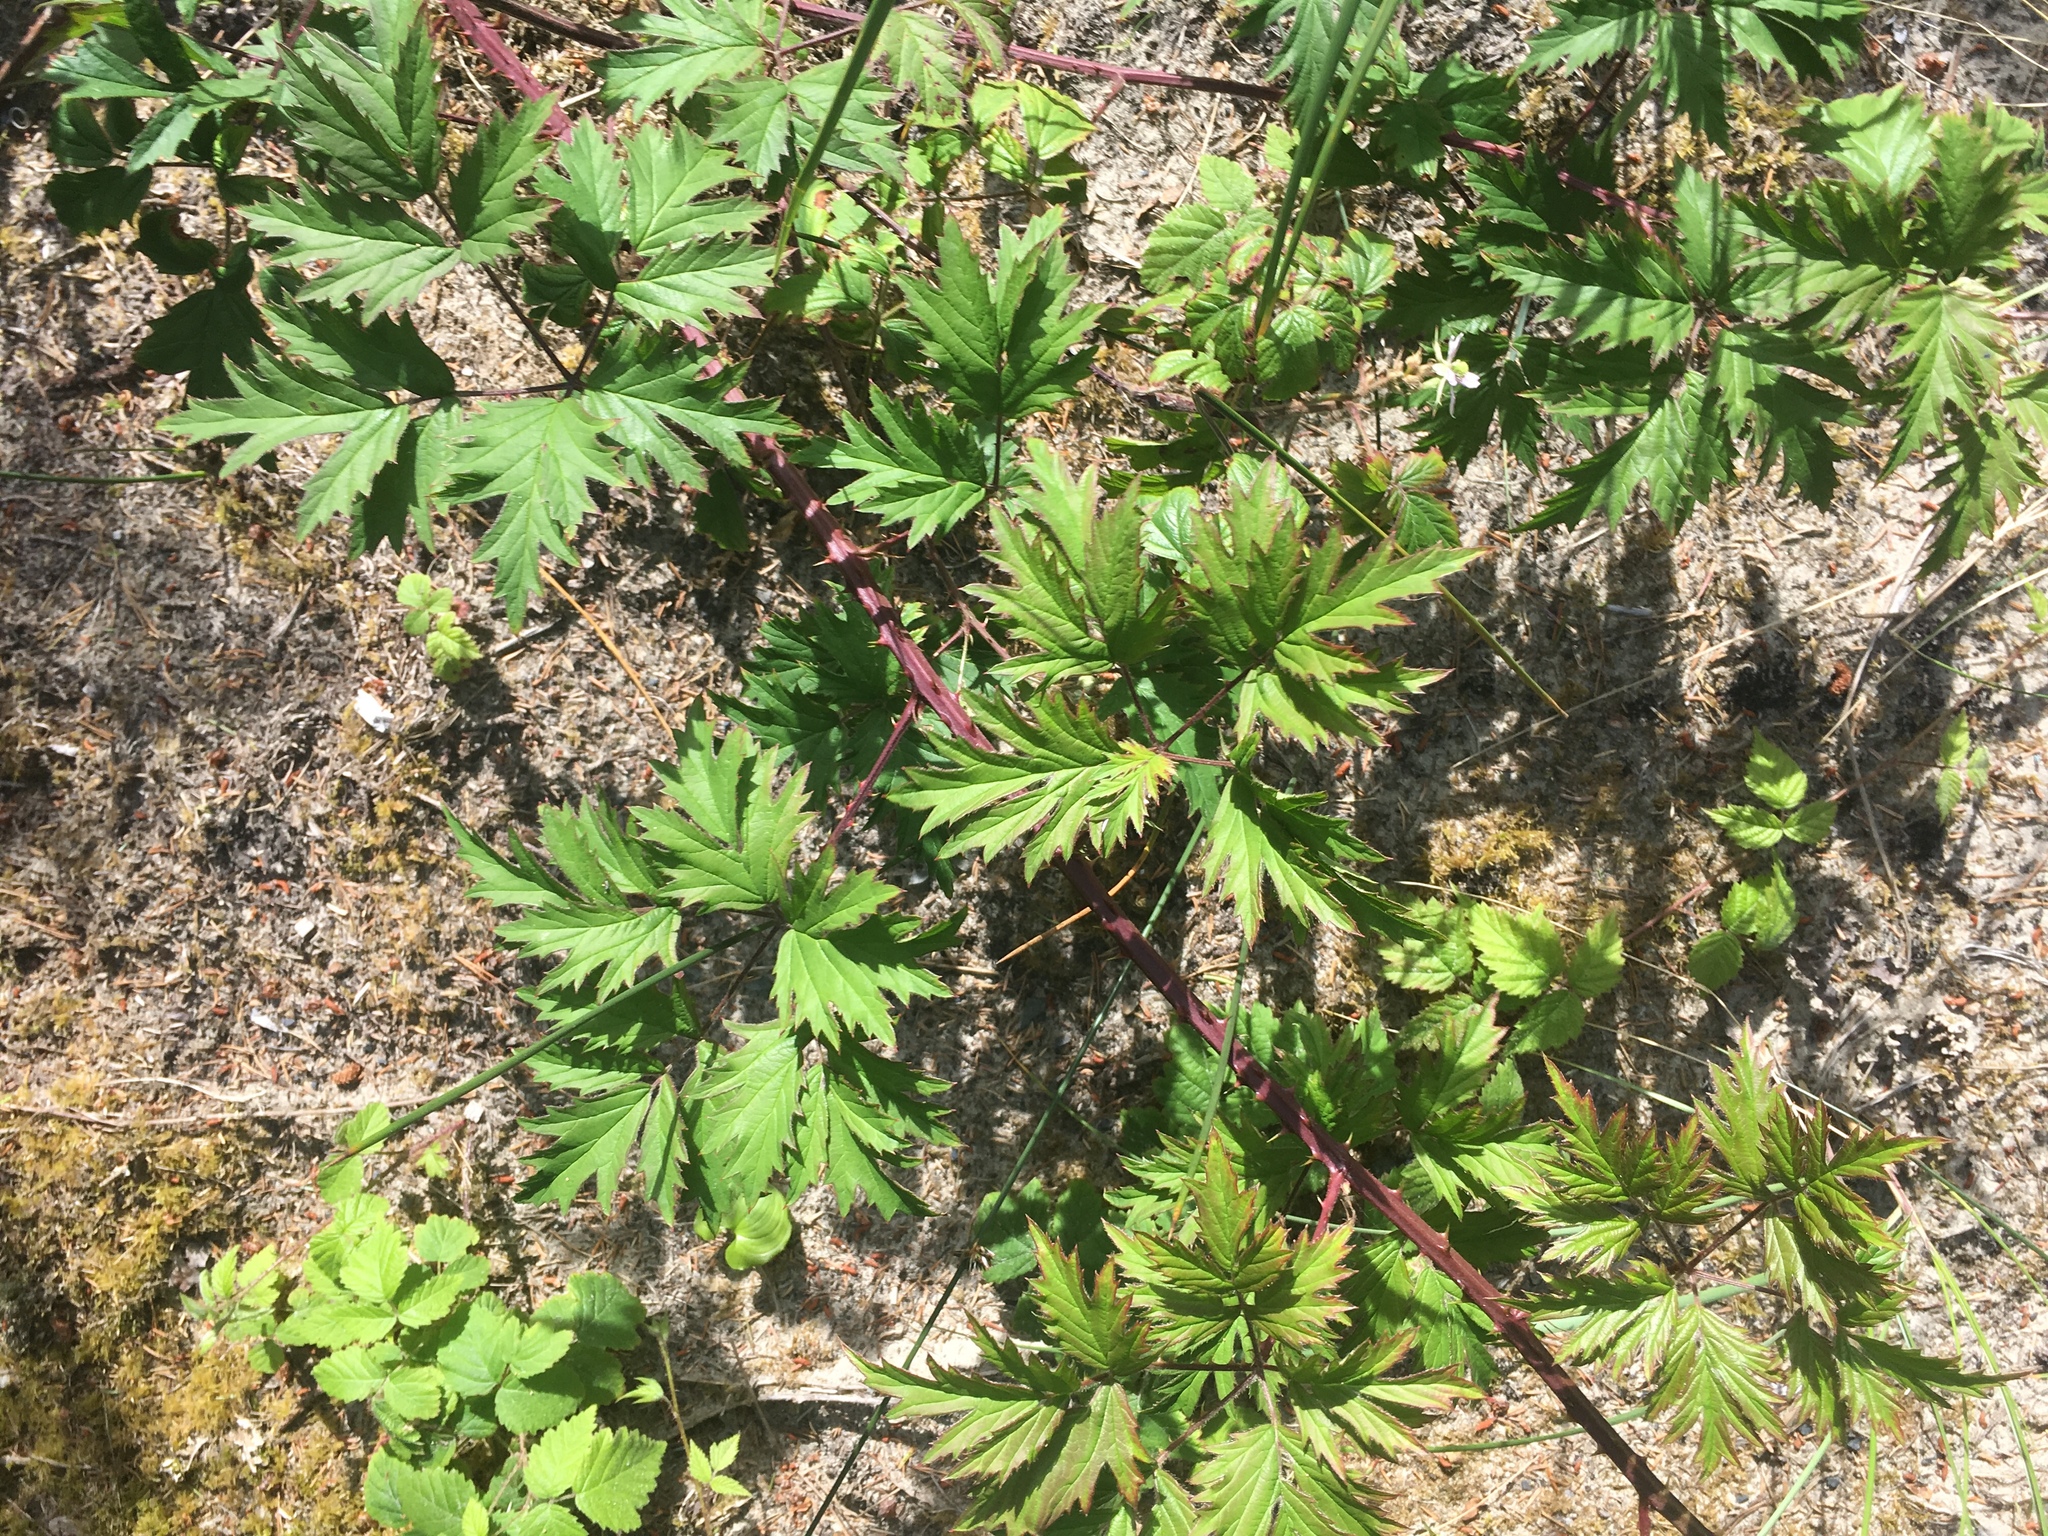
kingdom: Plantae
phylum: Tracheophyta
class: Magnoliopsida
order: Rosales
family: Rosaceae
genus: Rubus
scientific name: Rubus laciniatus
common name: Evergreen blackberry
